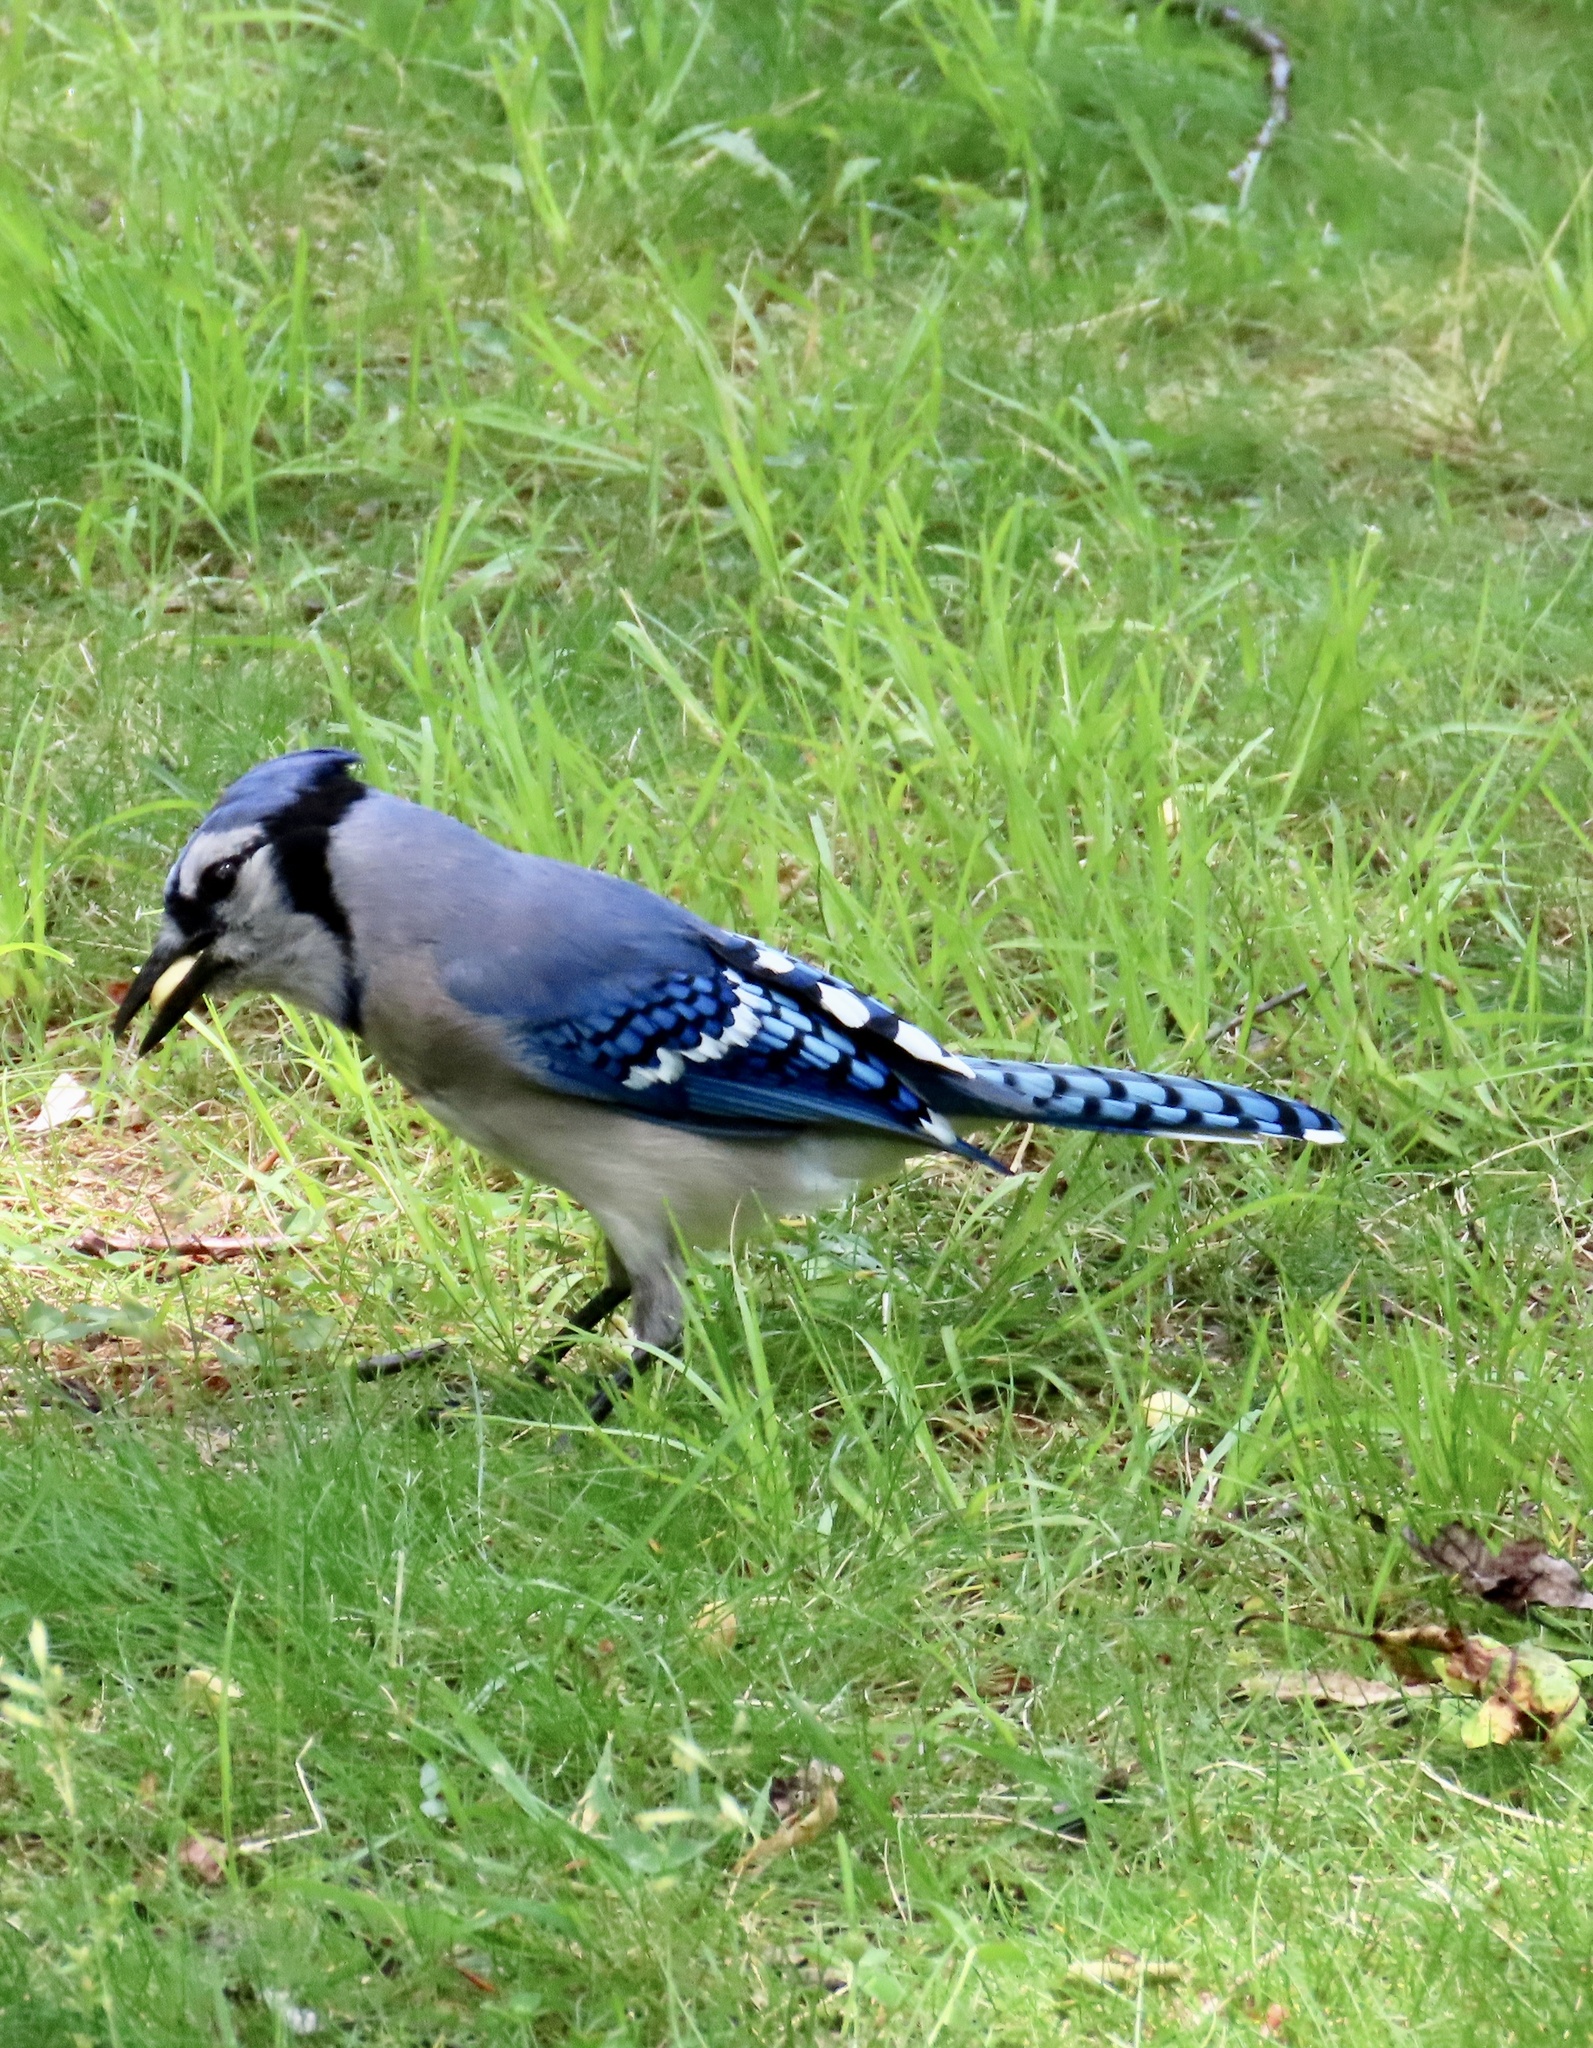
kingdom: Animalia
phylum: Chordata
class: Aves
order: Passeriformes
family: Corvidae
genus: Cyanocitta
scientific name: Cyanocitta cristata
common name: Blue jay
